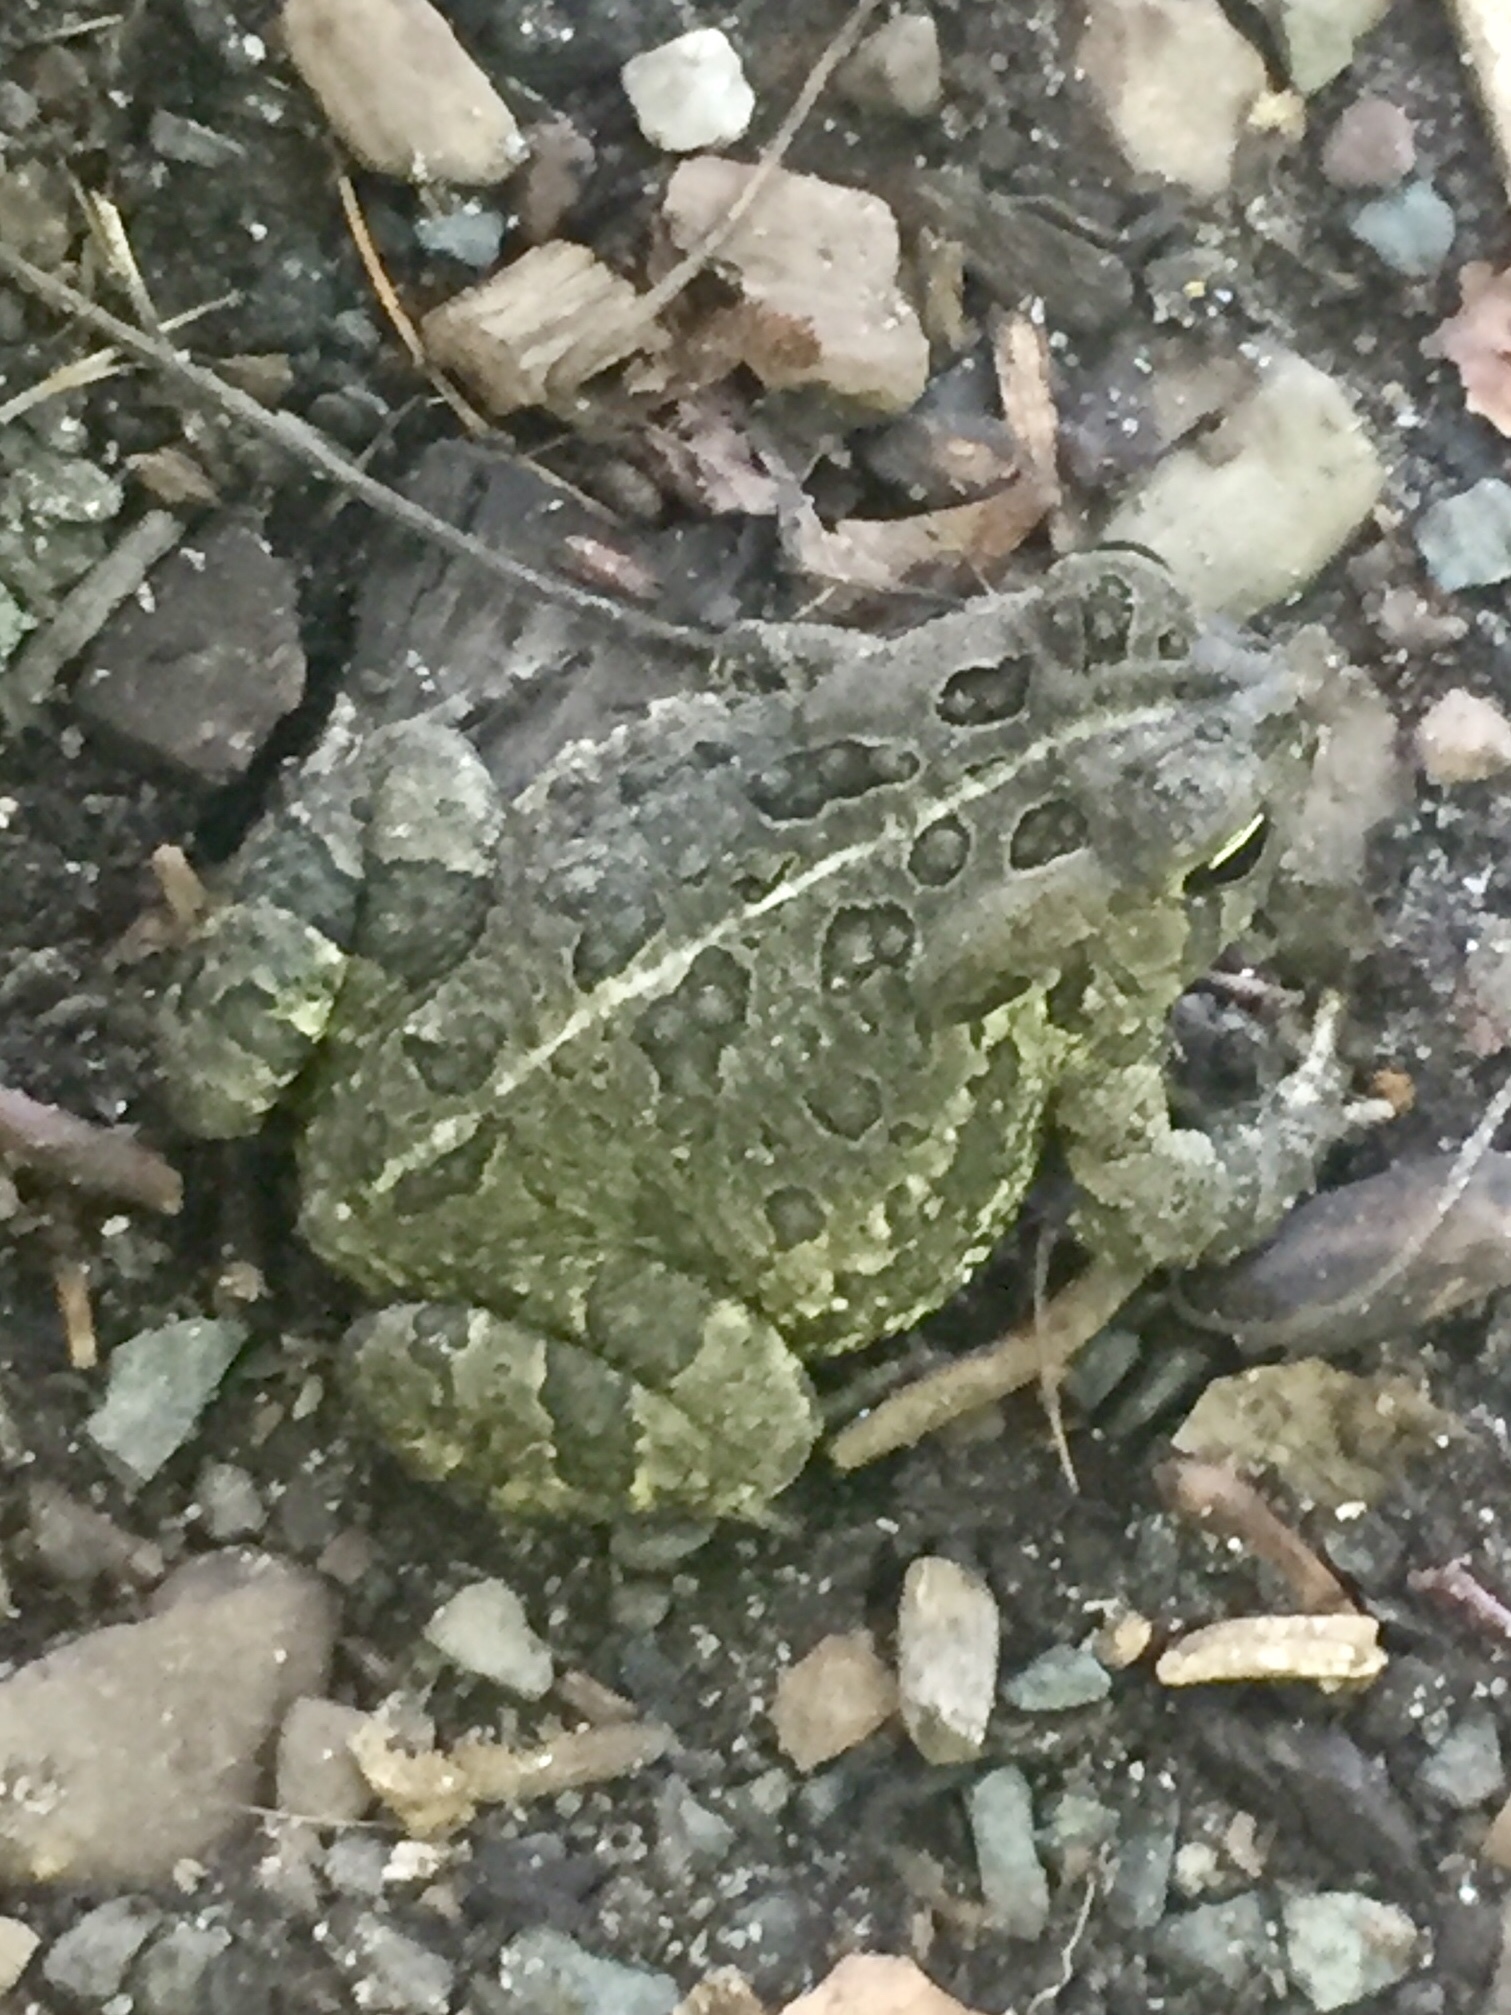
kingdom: Animalia
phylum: Chordata
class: Amphibia
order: Anura
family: Bufonidae
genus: Anaxyrus
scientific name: Anaxyrus fowleri
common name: Fowler's toad
